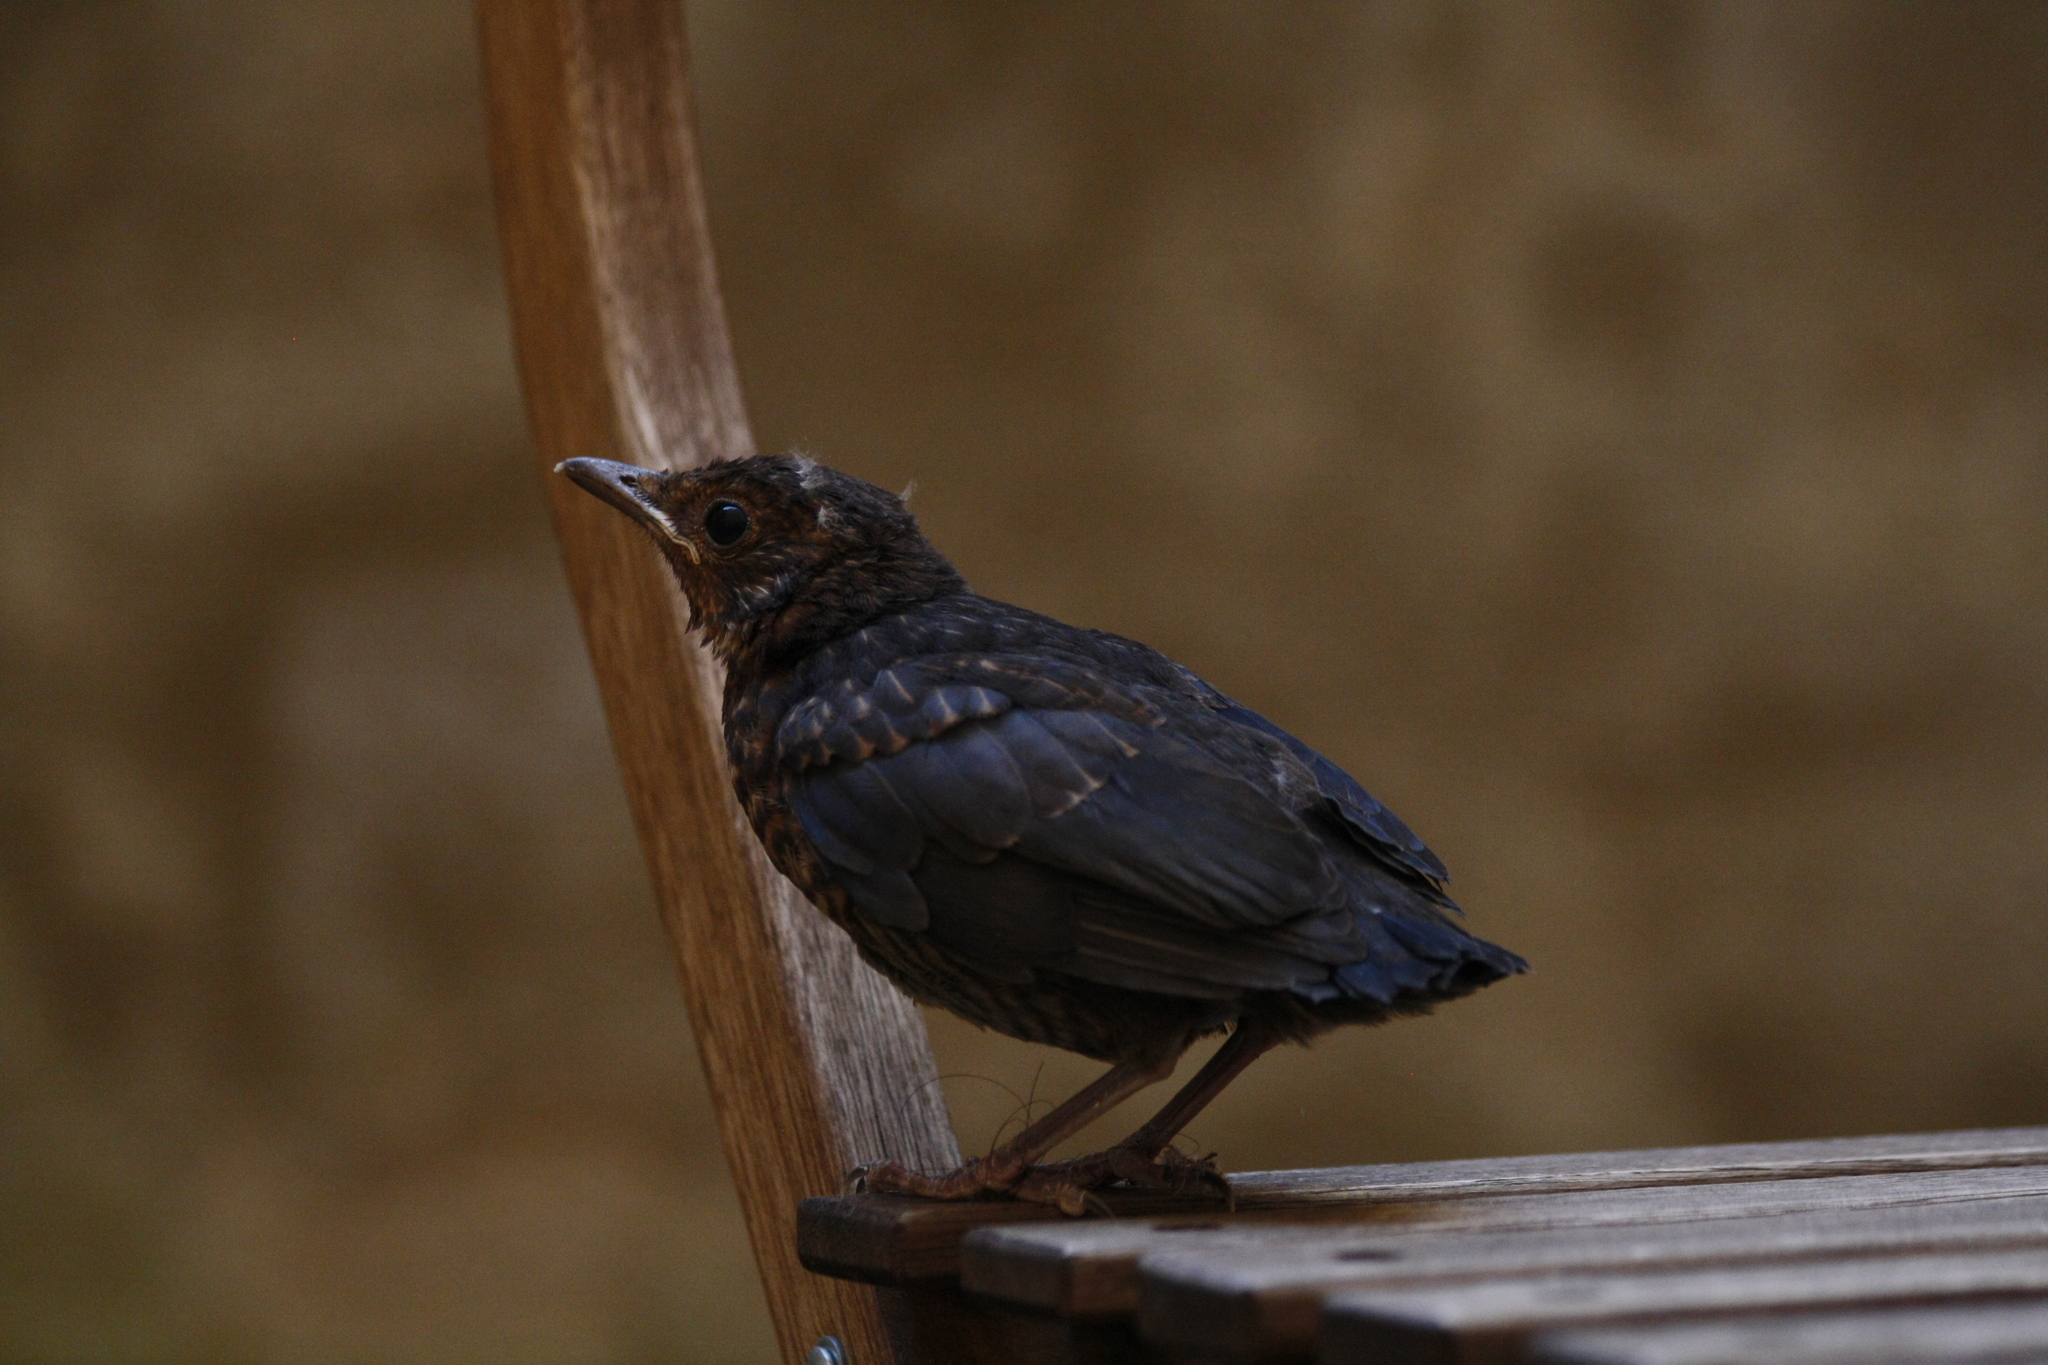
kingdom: Animalia
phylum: Chordata
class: Aves
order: Passeriformes
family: Turdidae
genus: Turdus
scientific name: Turdus merula
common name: Common blackbird
